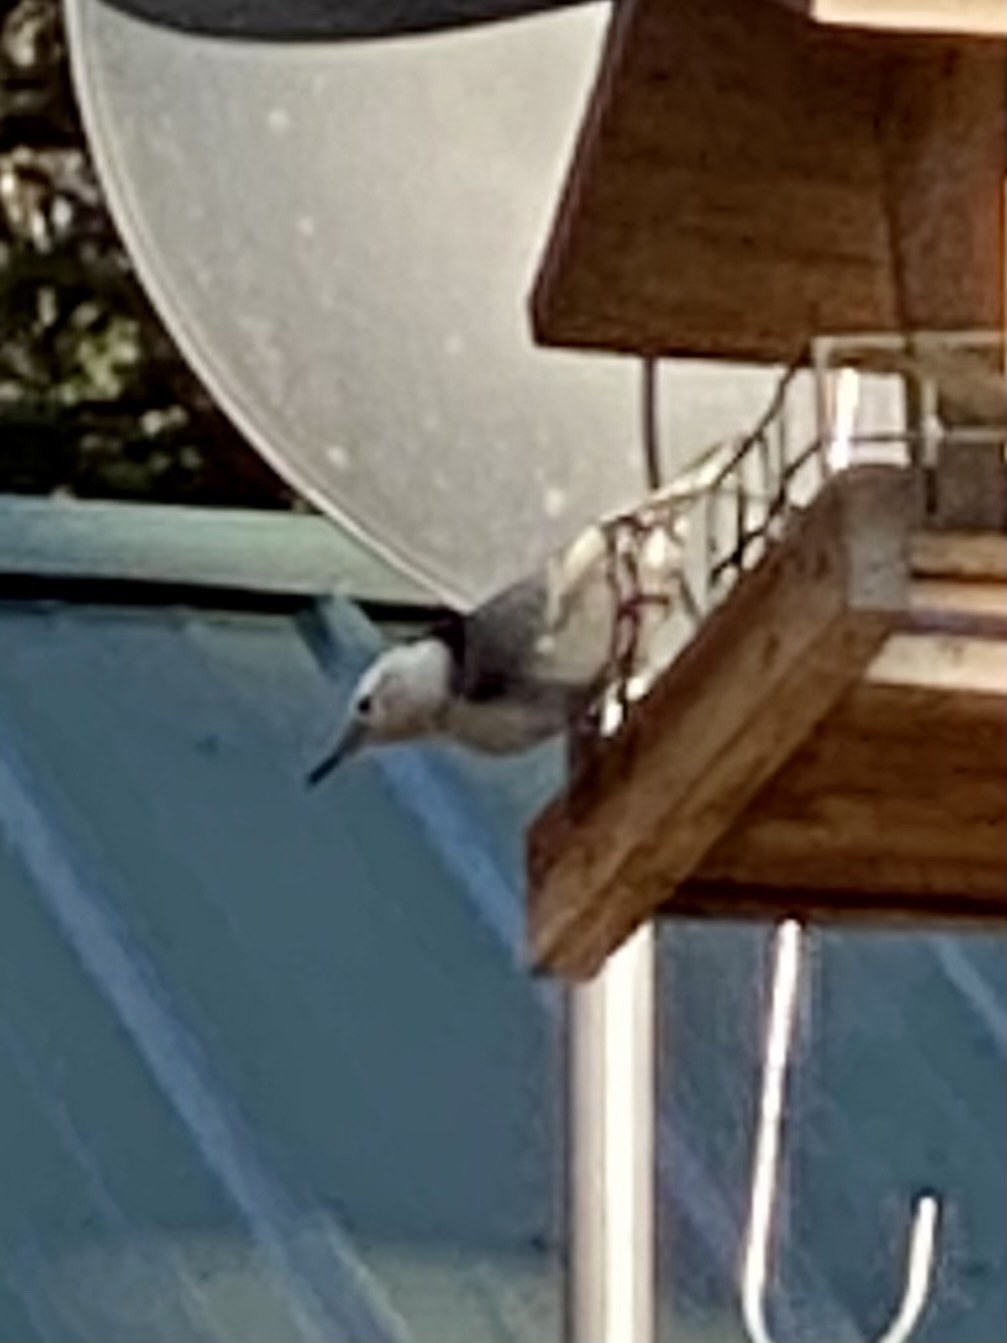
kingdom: Animalia
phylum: Chordata
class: Aves
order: Passeriformes
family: Sittidae
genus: Sitta
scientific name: Sitta carolinensis
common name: White-breasted nuthatch
